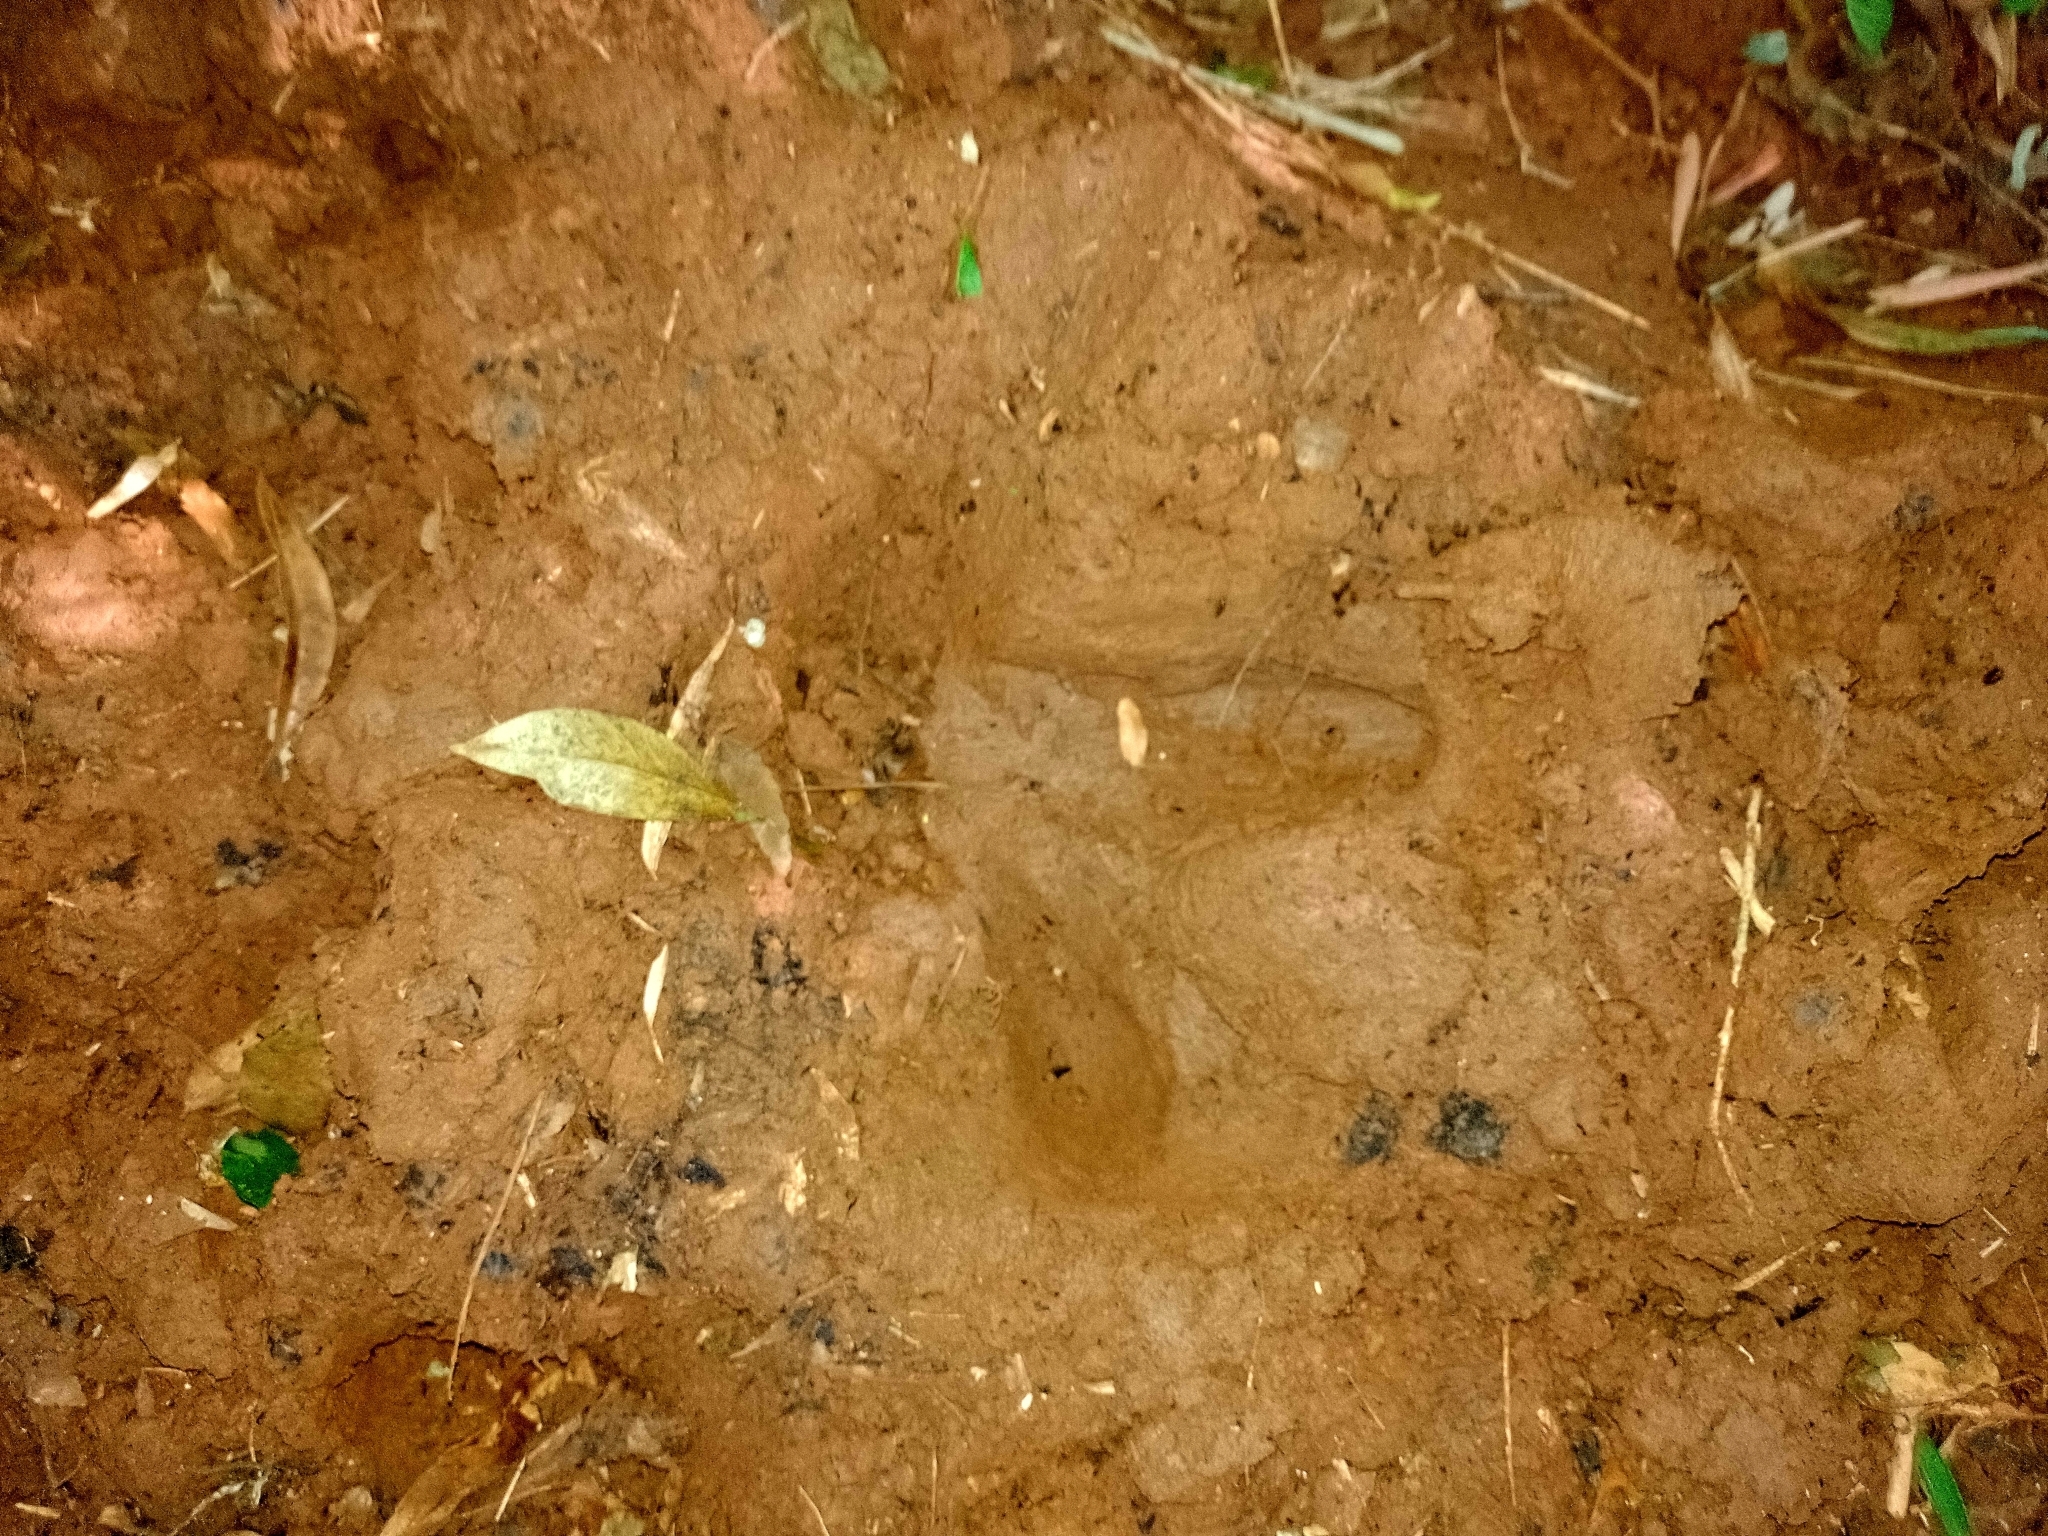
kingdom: Animalia
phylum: Chordata
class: Mammalia
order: Perissodactyla
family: Tapiridae
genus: Tapirus
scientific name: Tapirus terrestris
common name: Brazilian tapir
